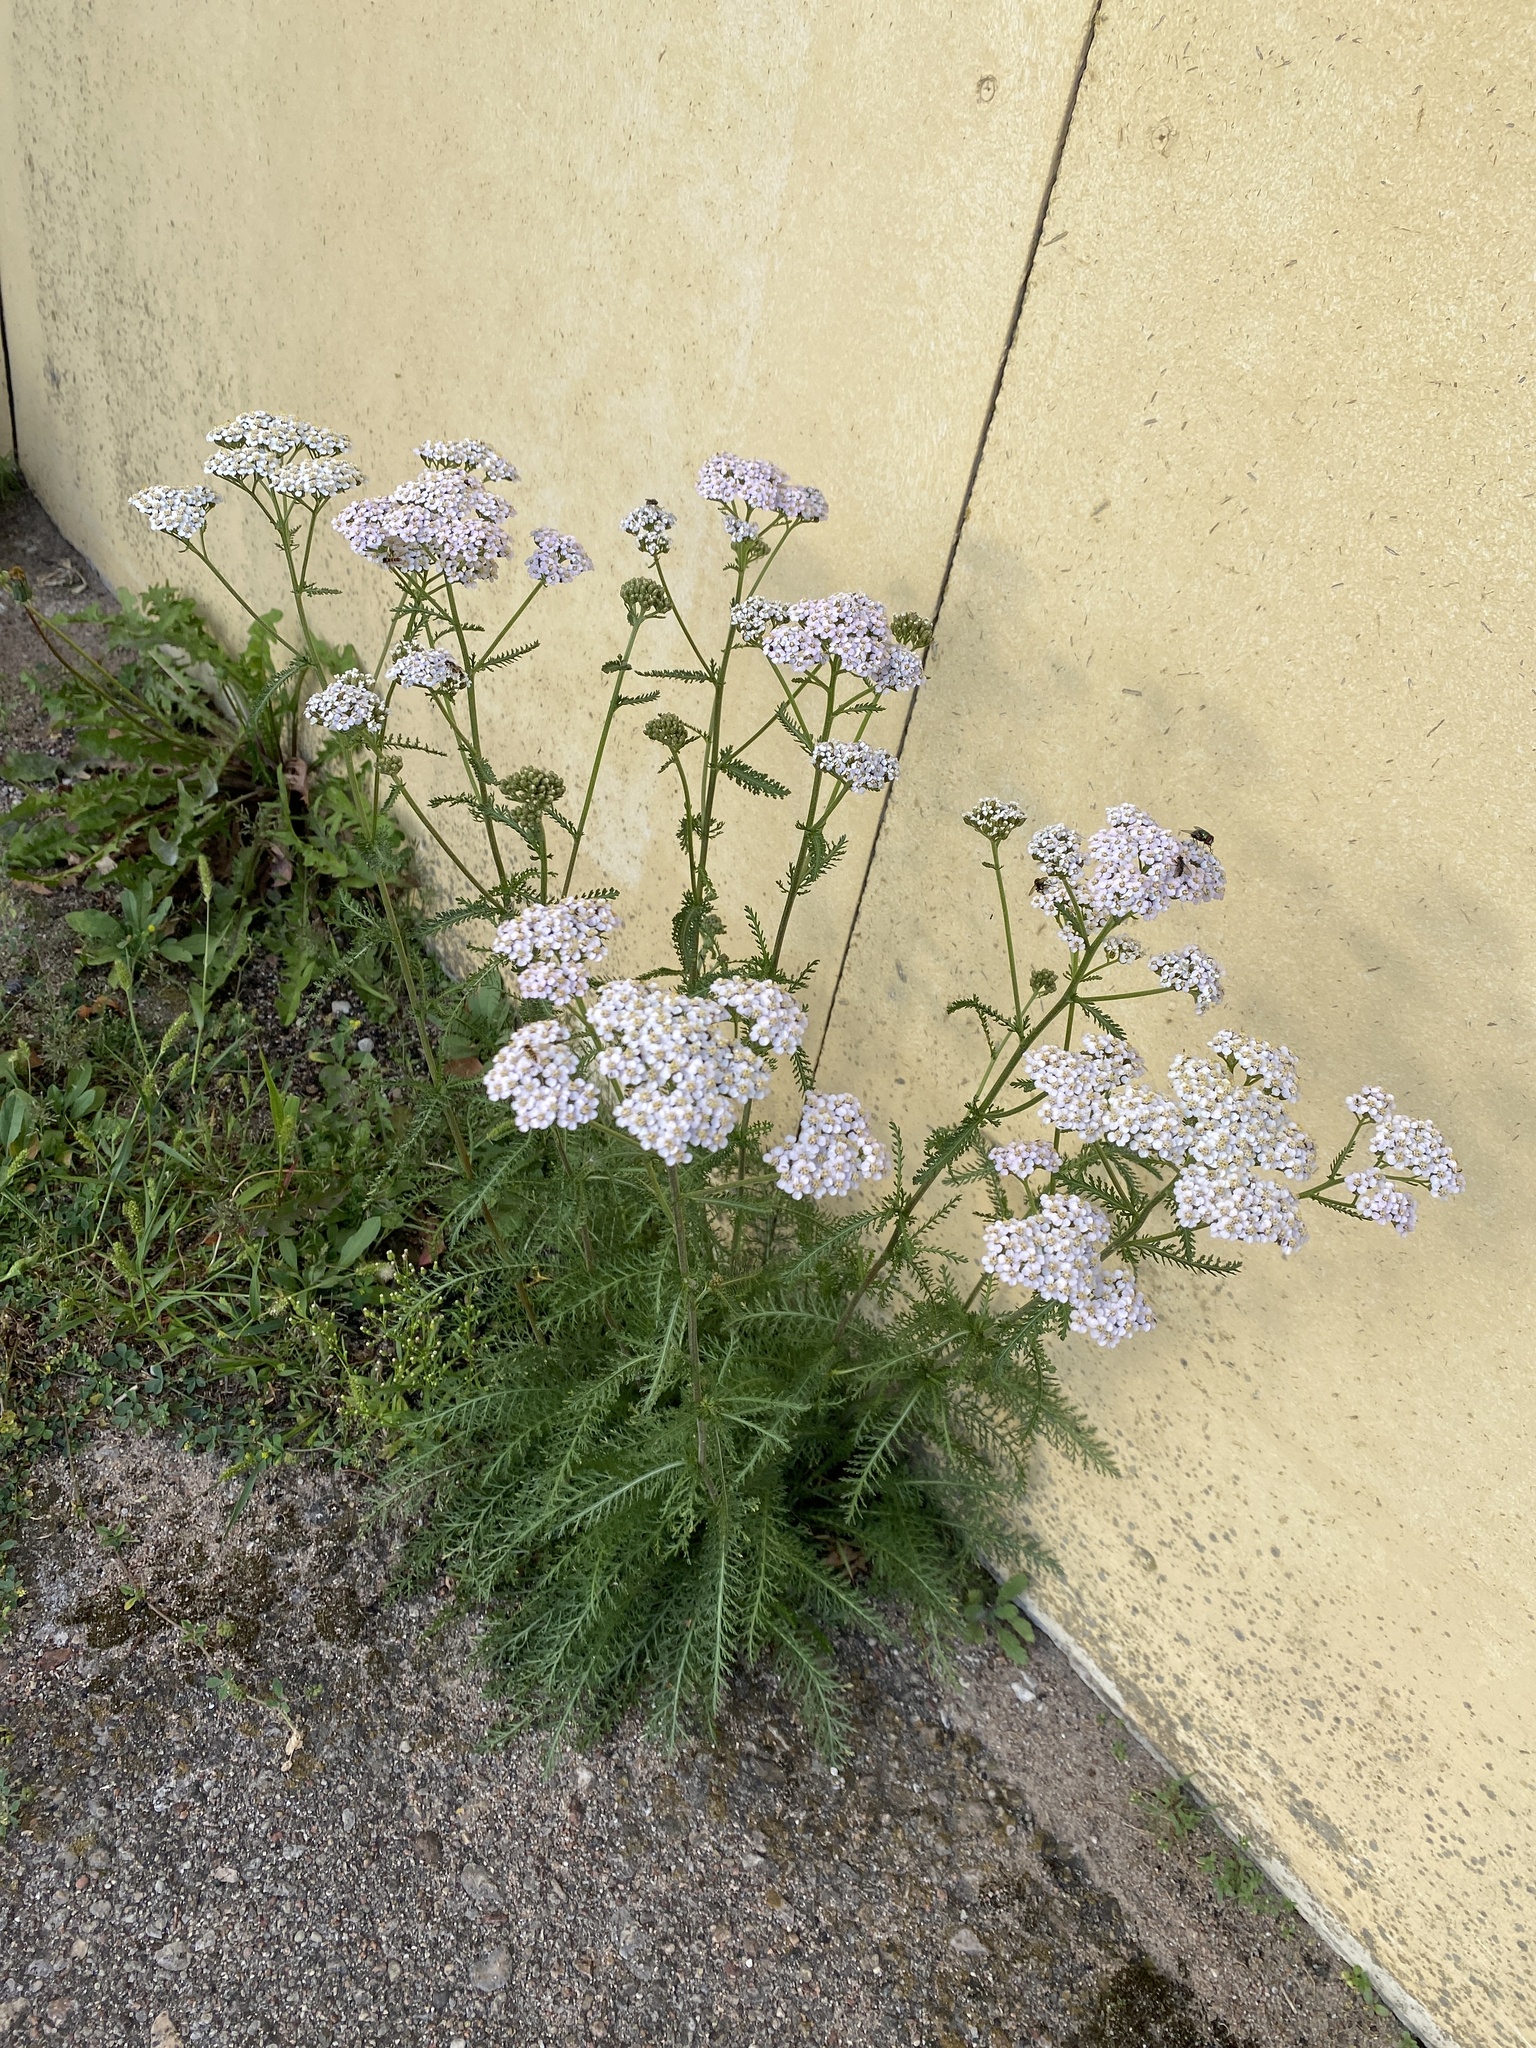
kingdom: Plantae
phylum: Tracheophyta
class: Magnoliopsida
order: Asterales
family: Asteraceae
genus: Achillea
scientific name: Achillea millefolium
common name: Yarrow
